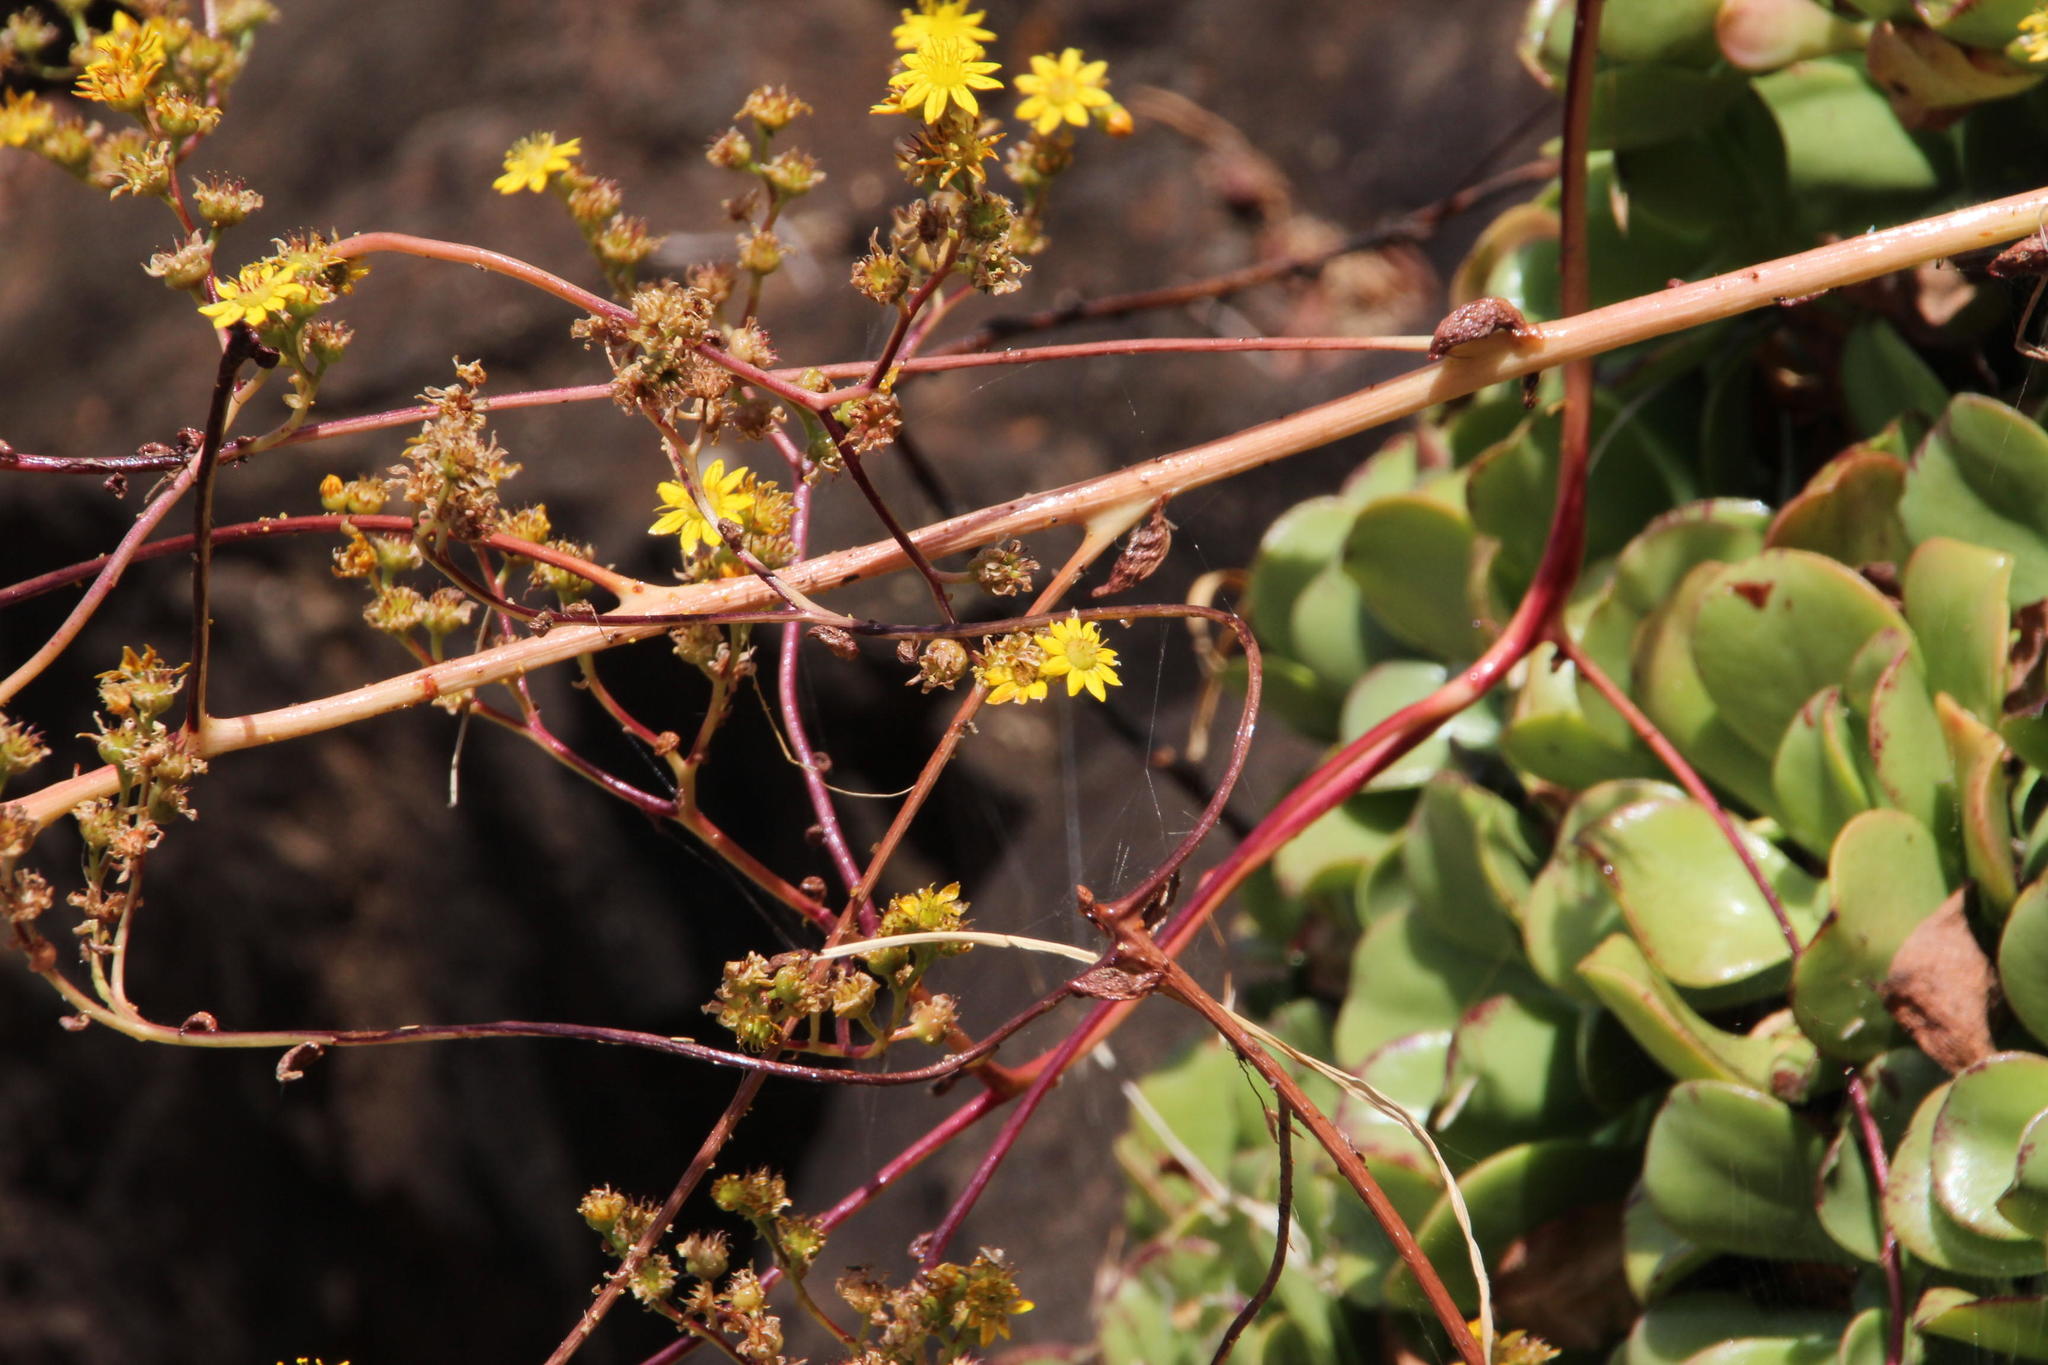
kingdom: Plantae
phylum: Tracheophyta
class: Magnoliopsida
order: Saxifragales
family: Crassulaceae
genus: Aeonium
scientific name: Aeonium glutinosum
